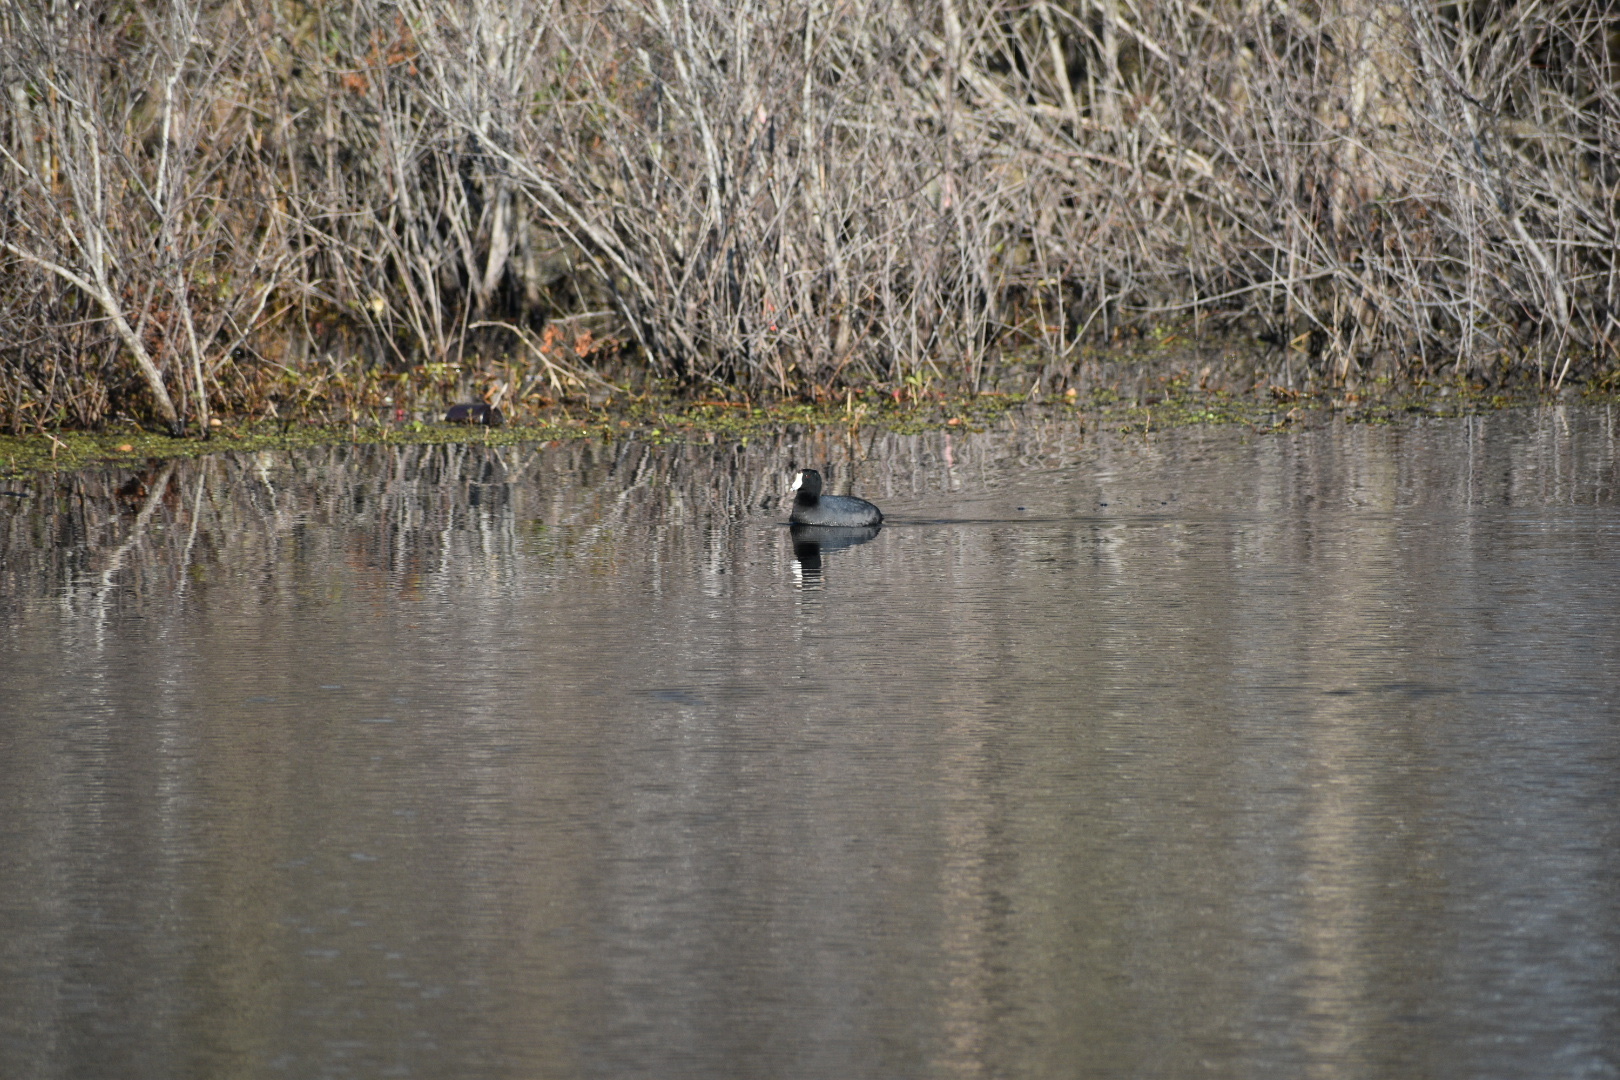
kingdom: Animalia
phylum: Chordata
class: Aves
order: Gruiformes
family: Rallidae
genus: Fulica
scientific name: Fulica americana
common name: American coot
